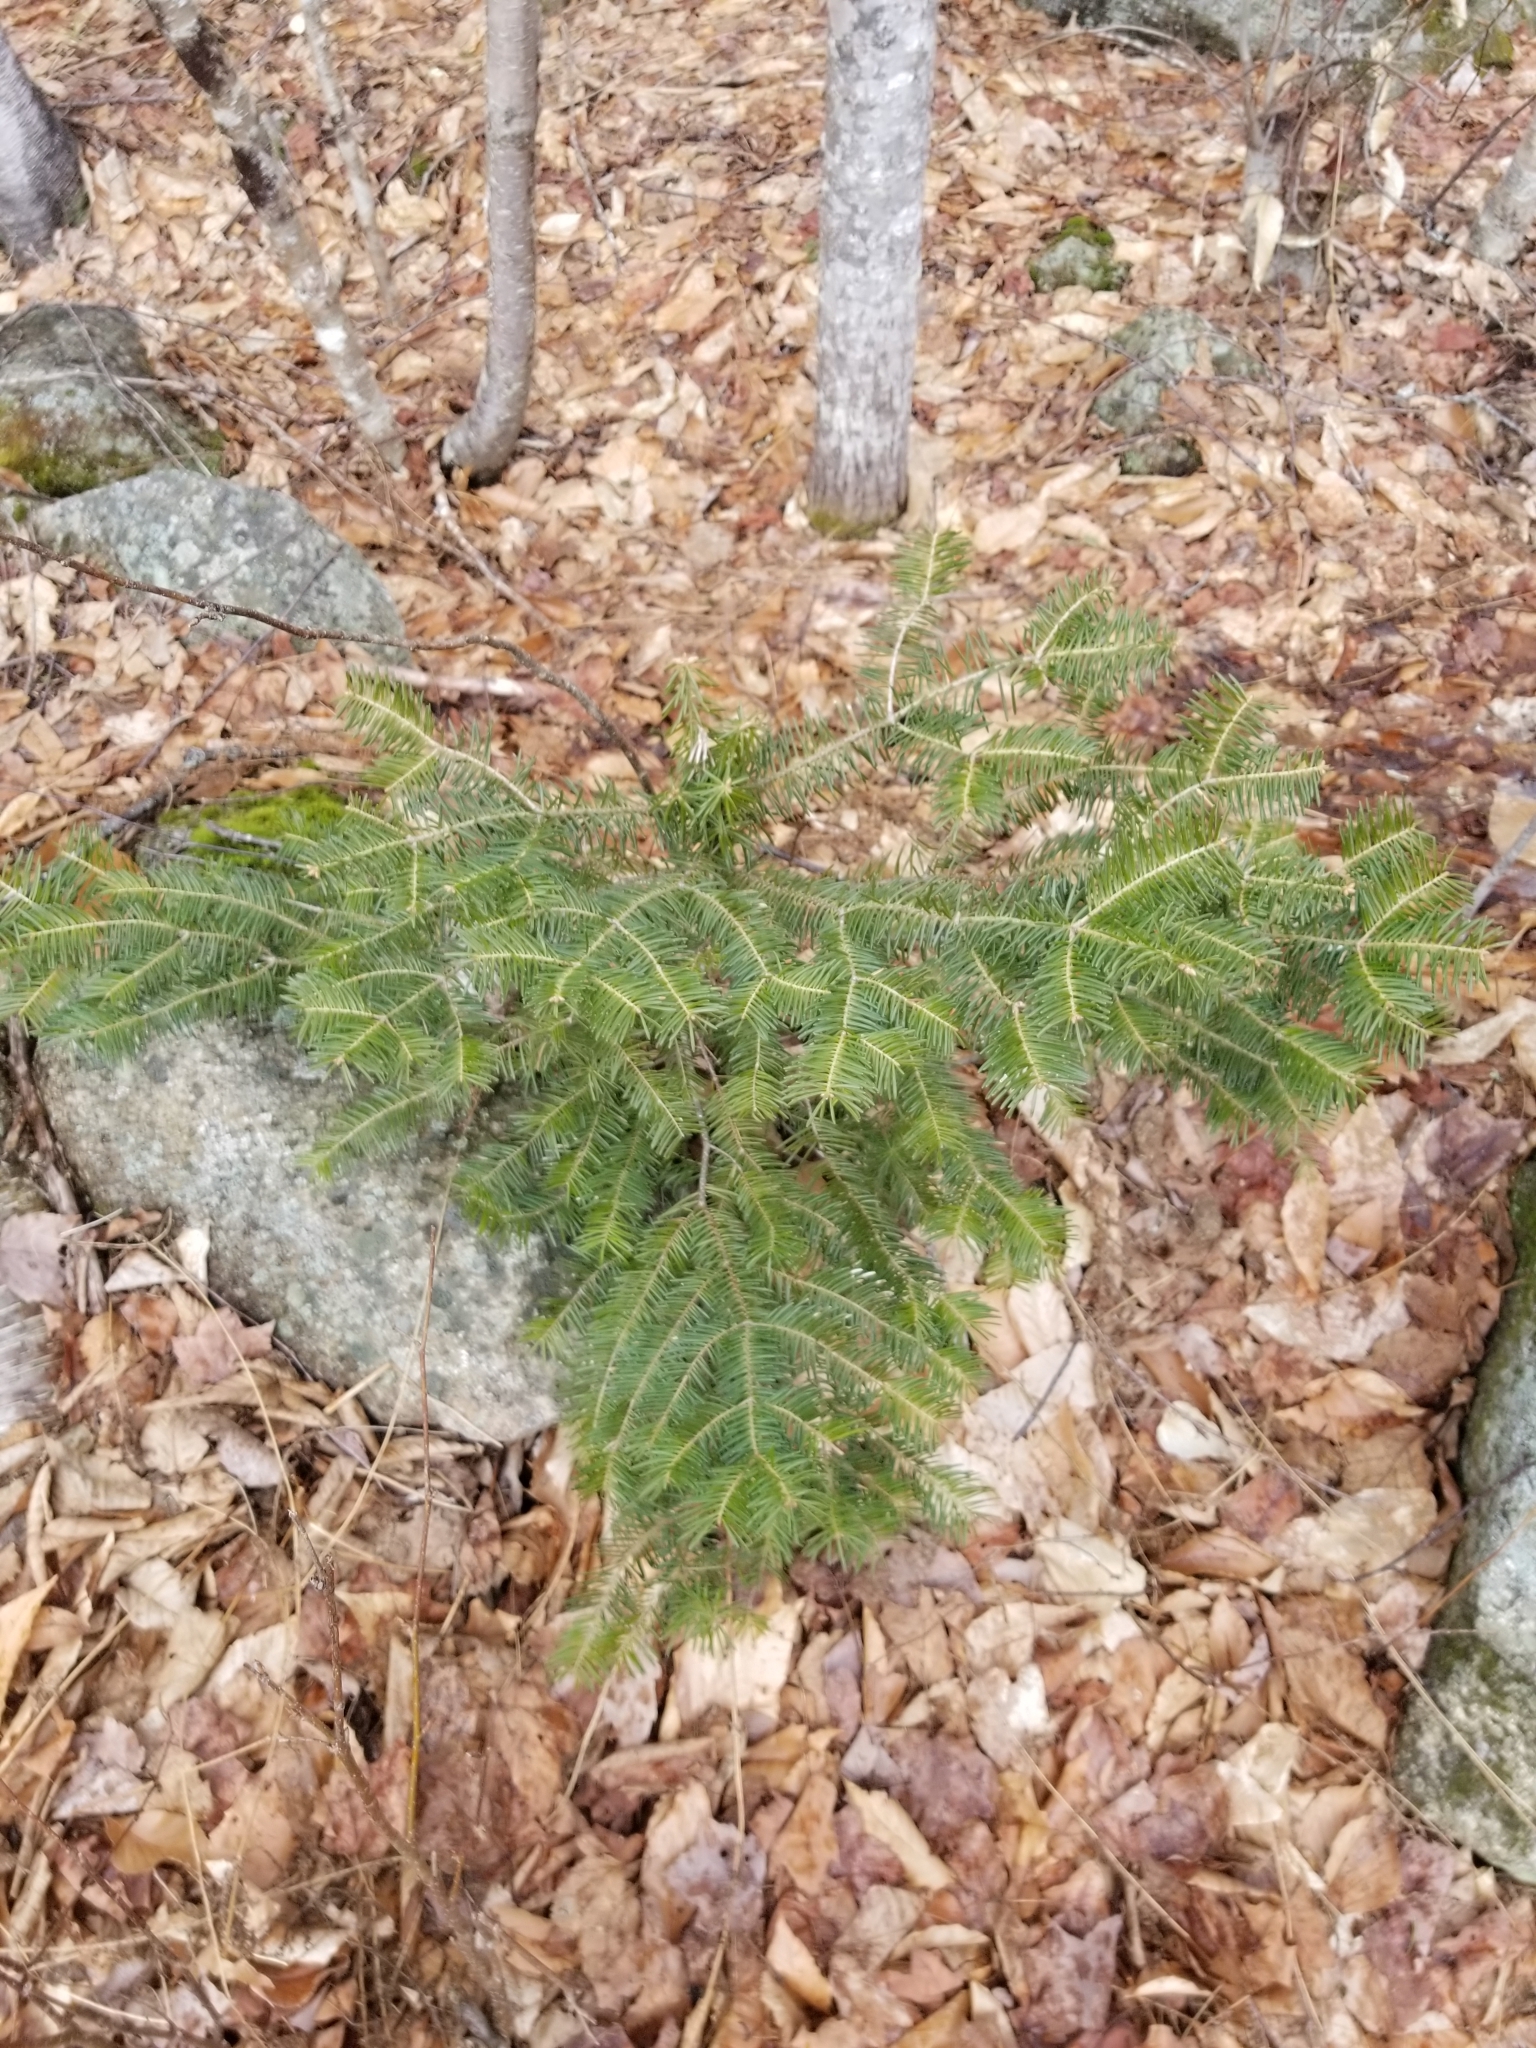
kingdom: Plantae
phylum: Tracheophyta
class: Pinopsida
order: Pinales
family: Pinaceae
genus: Abies
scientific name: Abies balsamea
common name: Balsam fir
